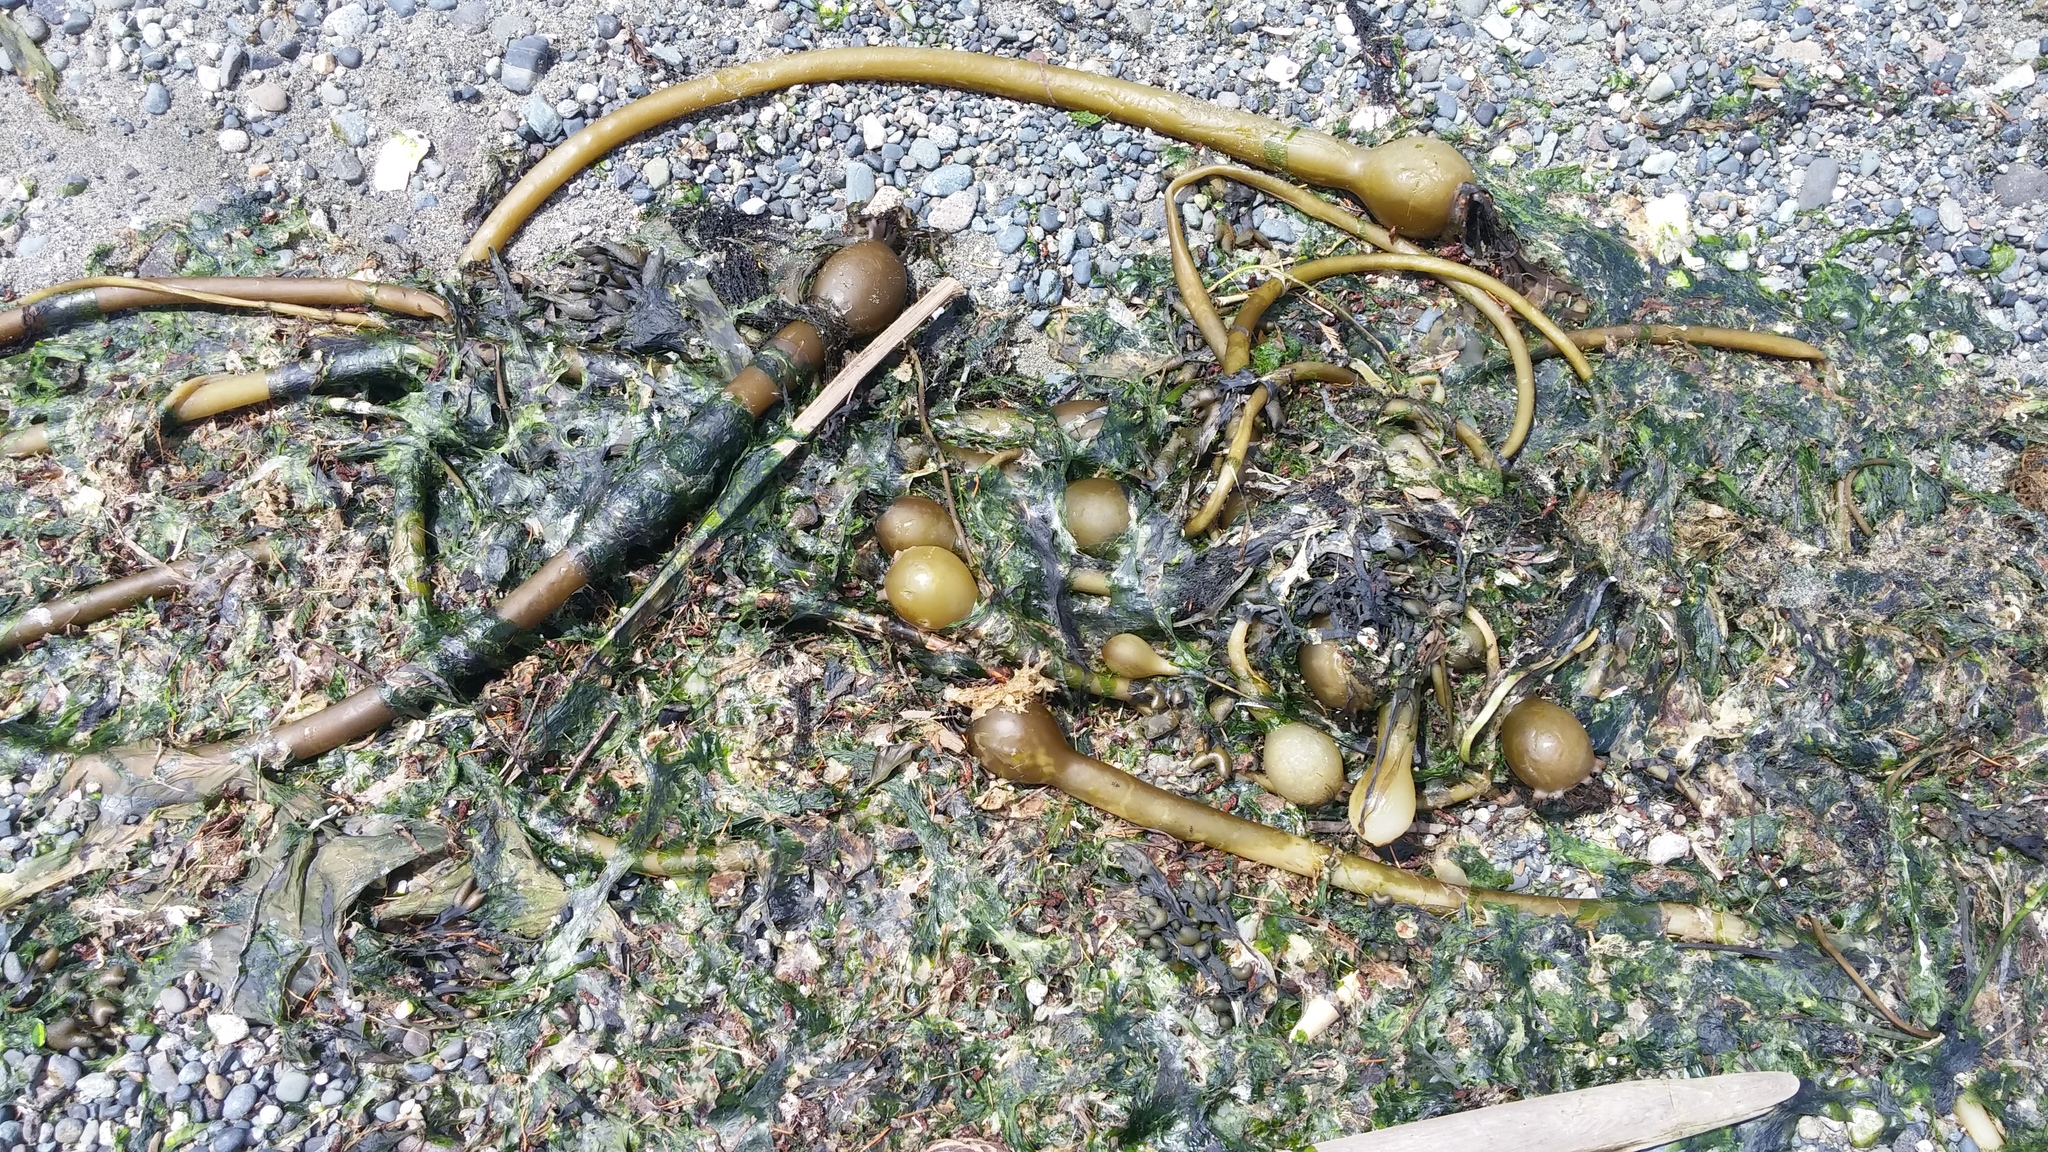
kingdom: Chromista
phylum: Ochrophyta
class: Phaeophyceae
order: Laminariales
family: Laminariaceae
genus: Nereocystis
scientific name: Nereocystis luetkeana
